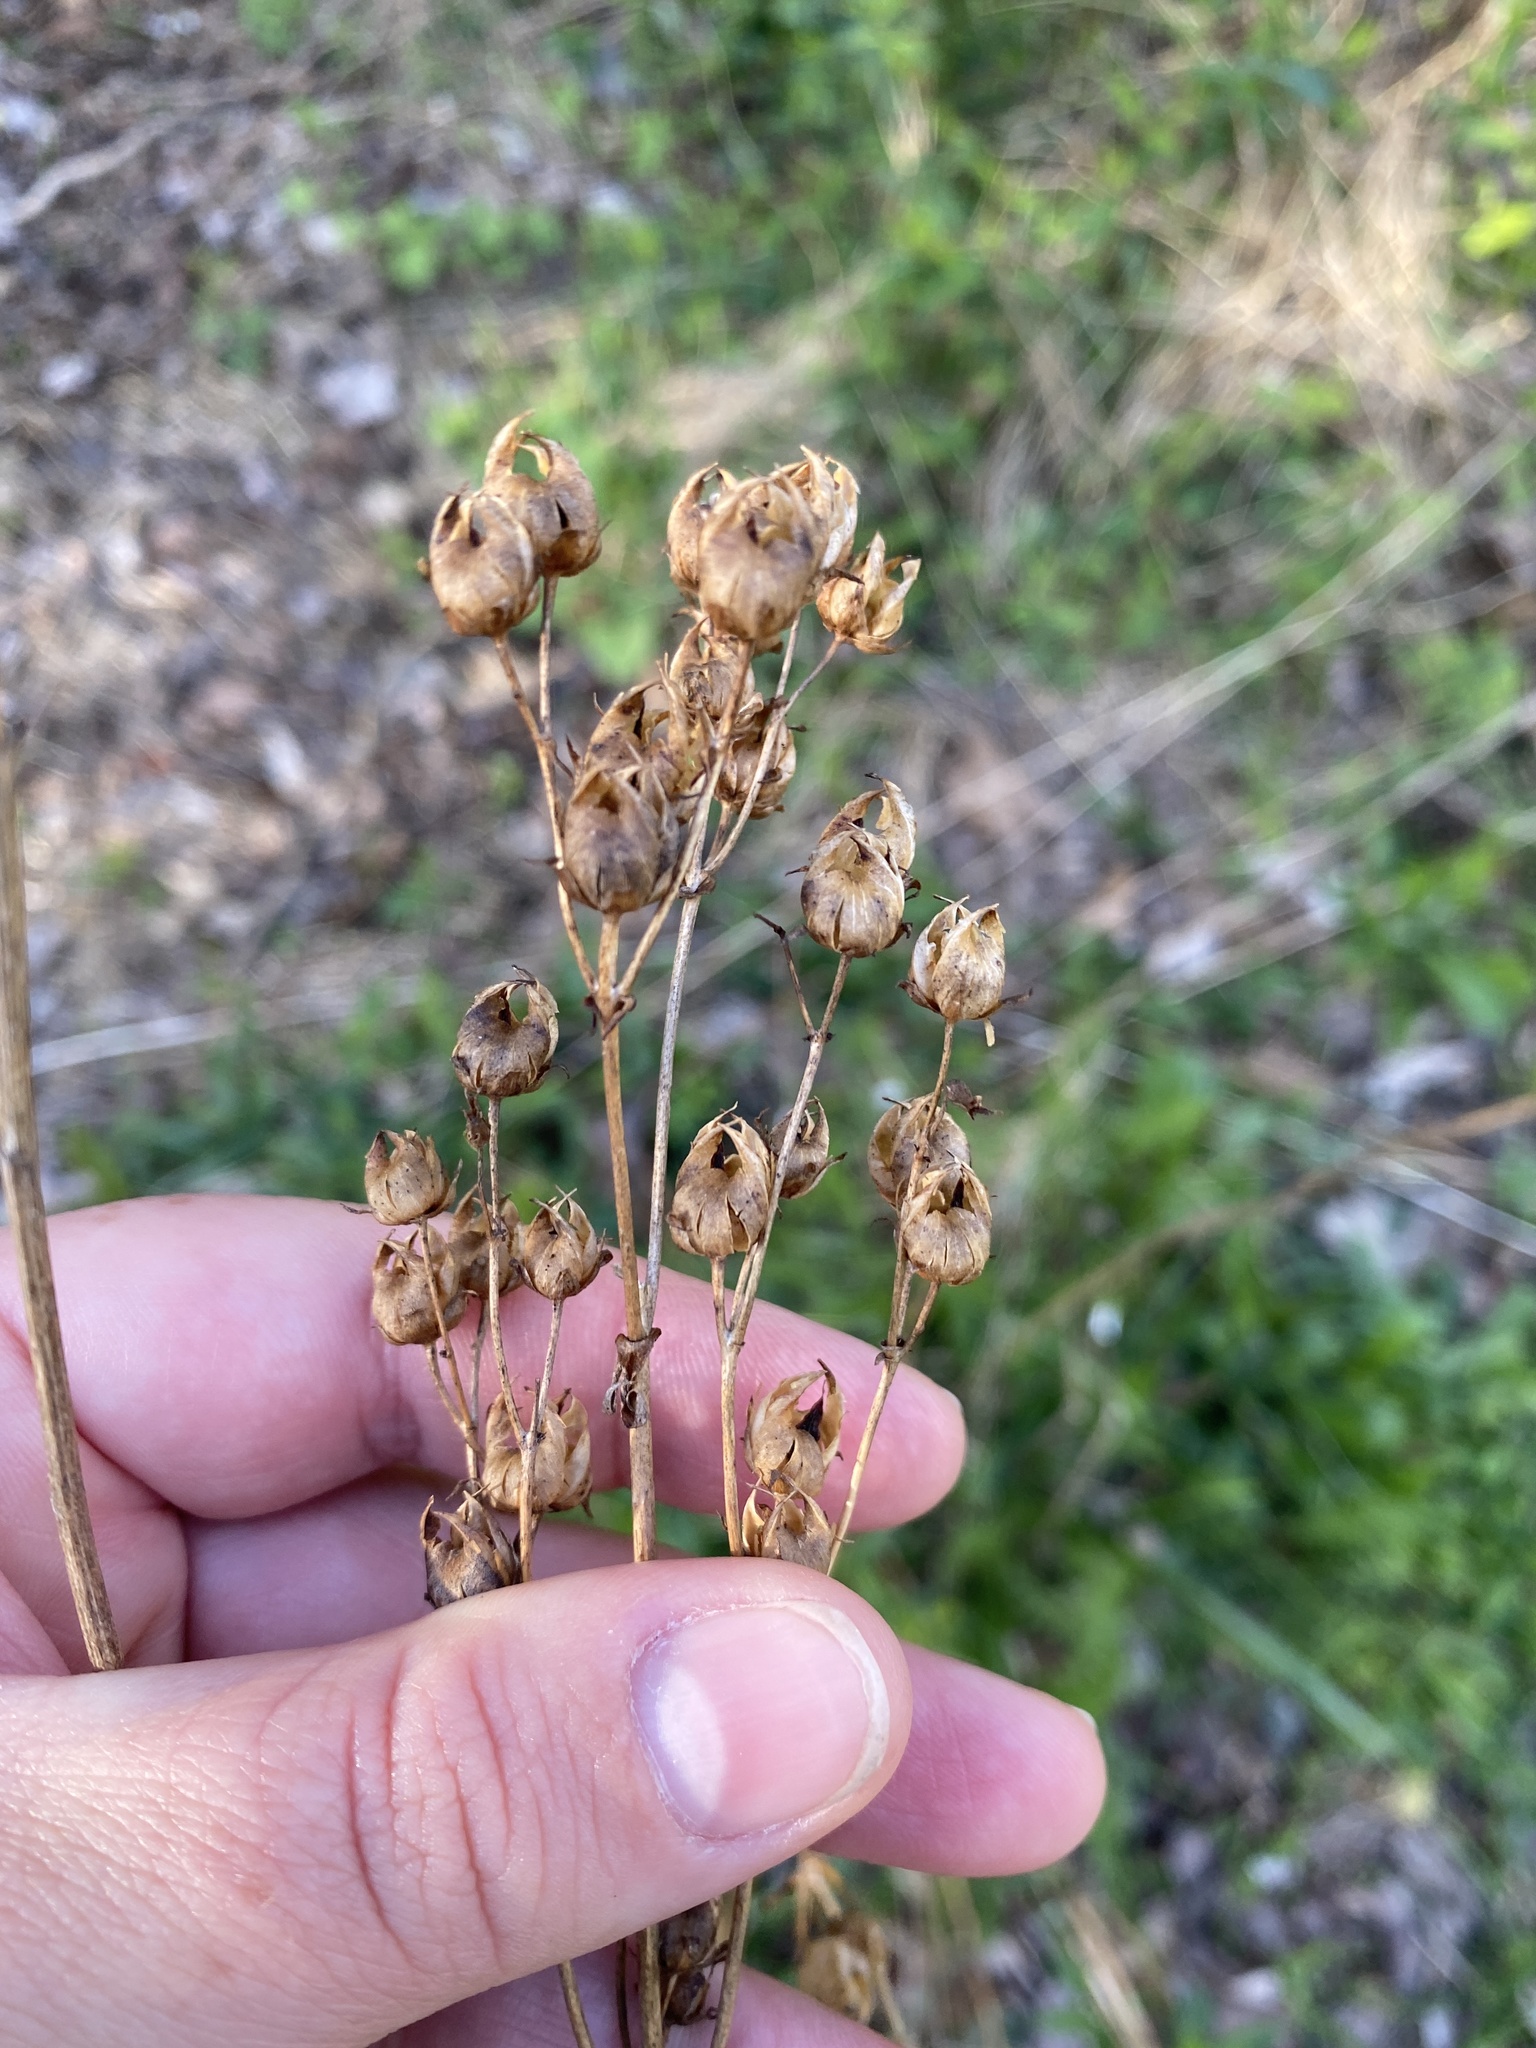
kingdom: Plantae
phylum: Tracheophyta
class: Magnoliopsida
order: Lamiales
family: Plantaginaceae
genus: Penstemon
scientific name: Penstemon digitalis
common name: Foxglove beardtongue
